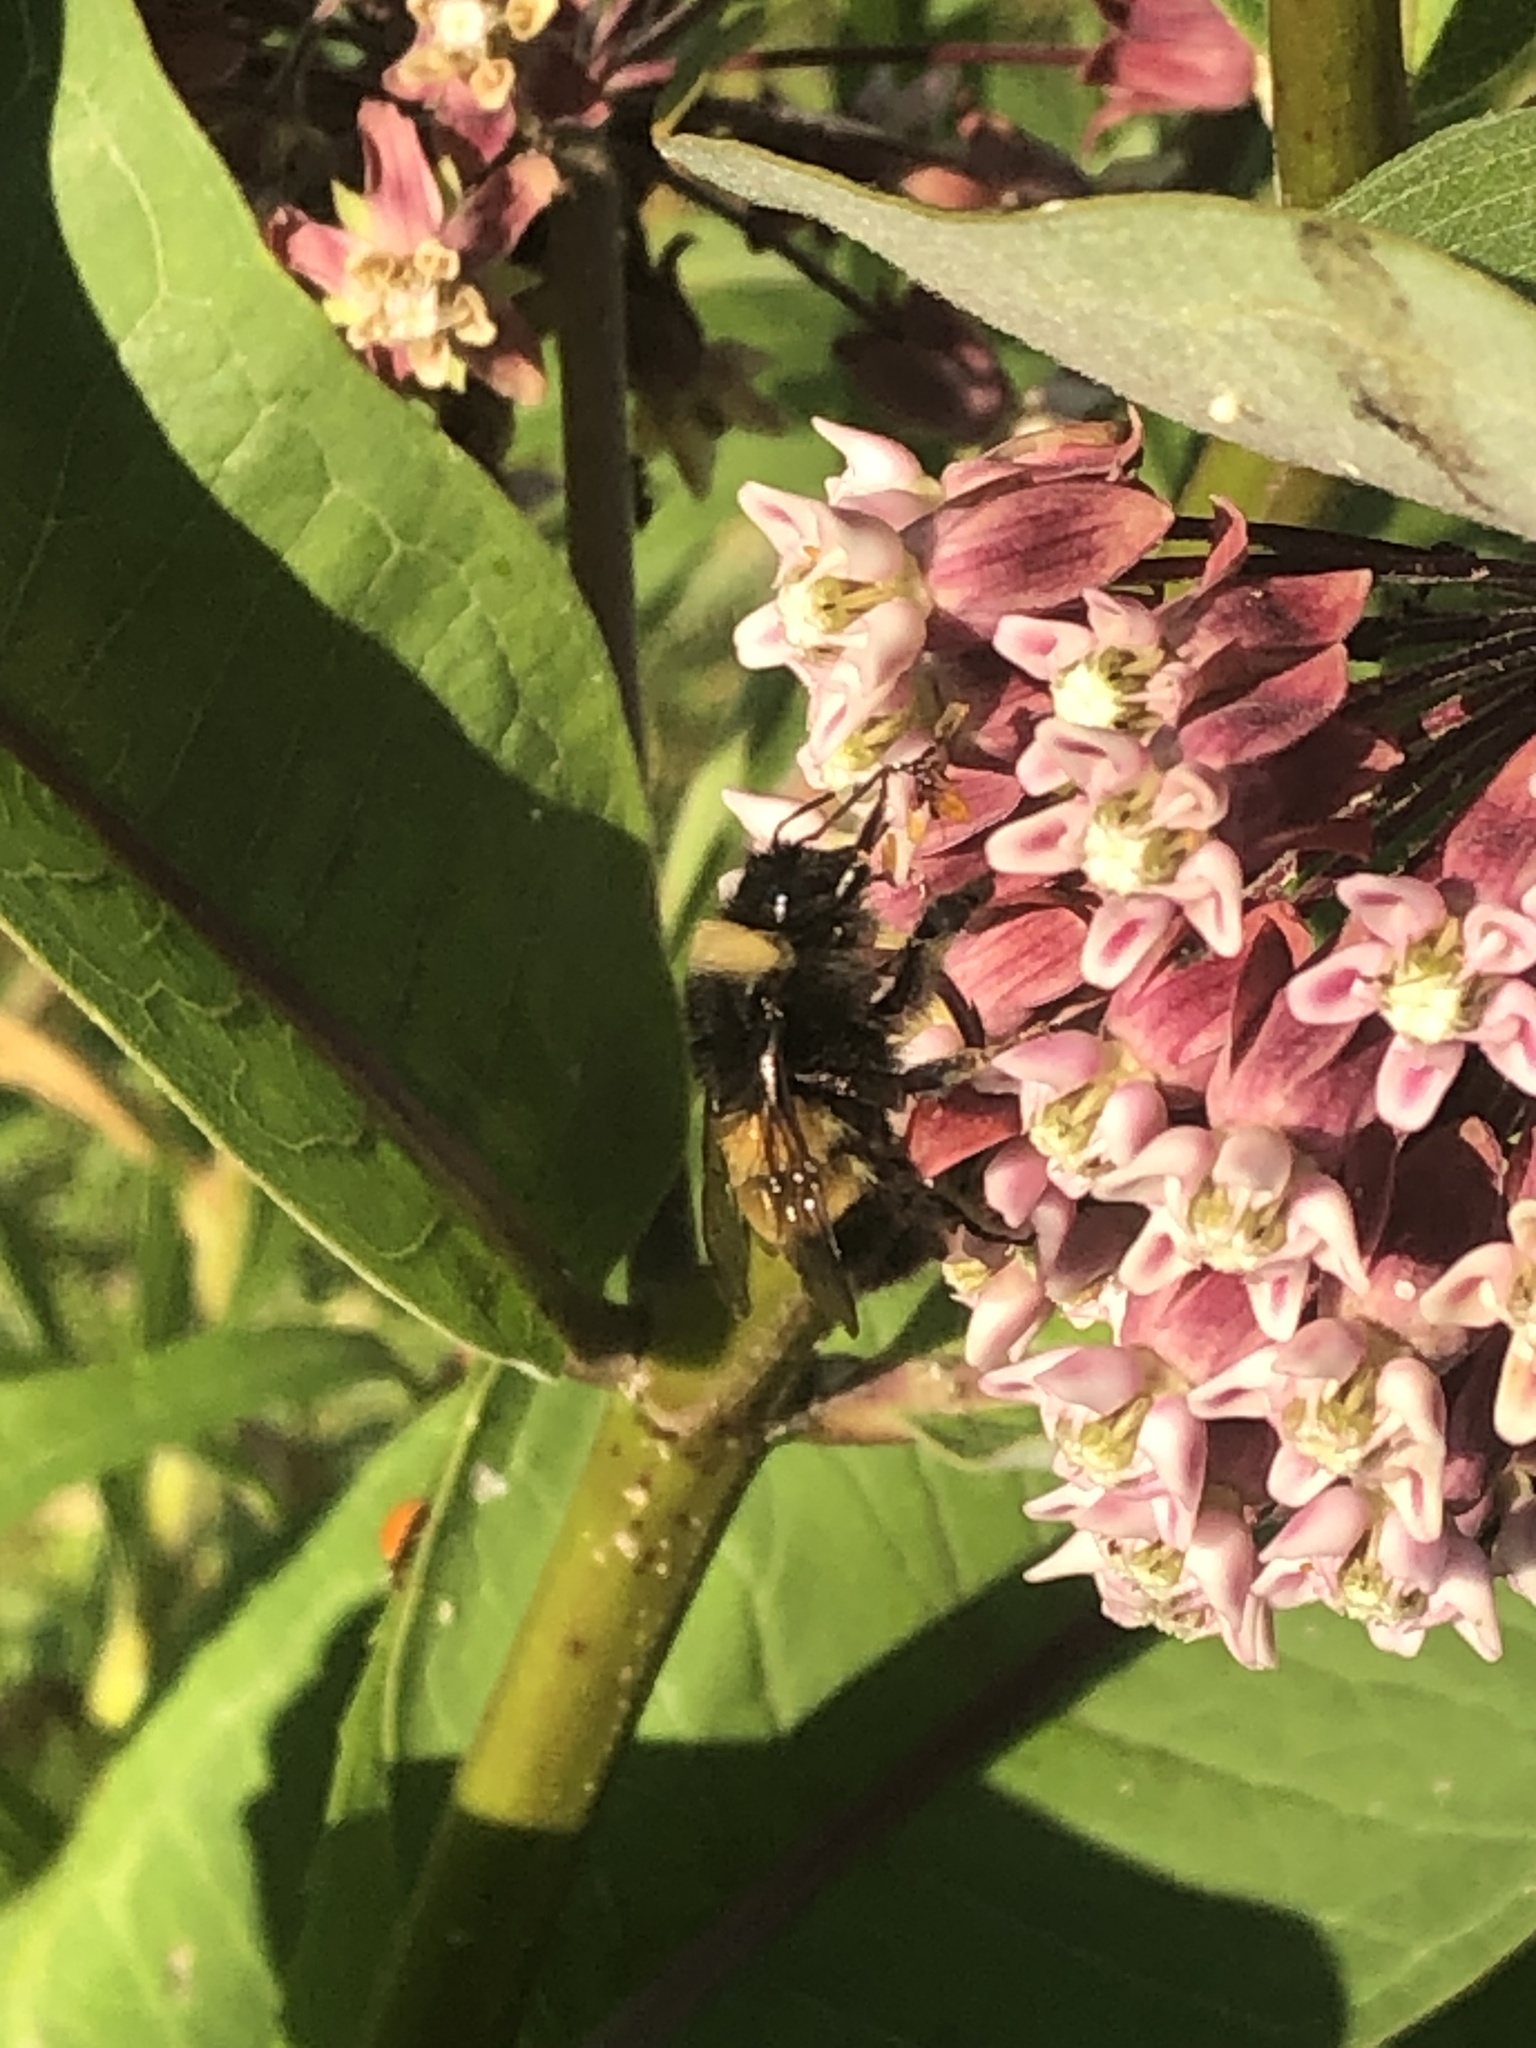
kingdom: Animalia
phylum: Arthropoda
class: Insecta
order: Hymenoptera
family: Apidae
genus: Bombus
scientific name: Bombus terricola
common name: Yellow-banded bumble bee
